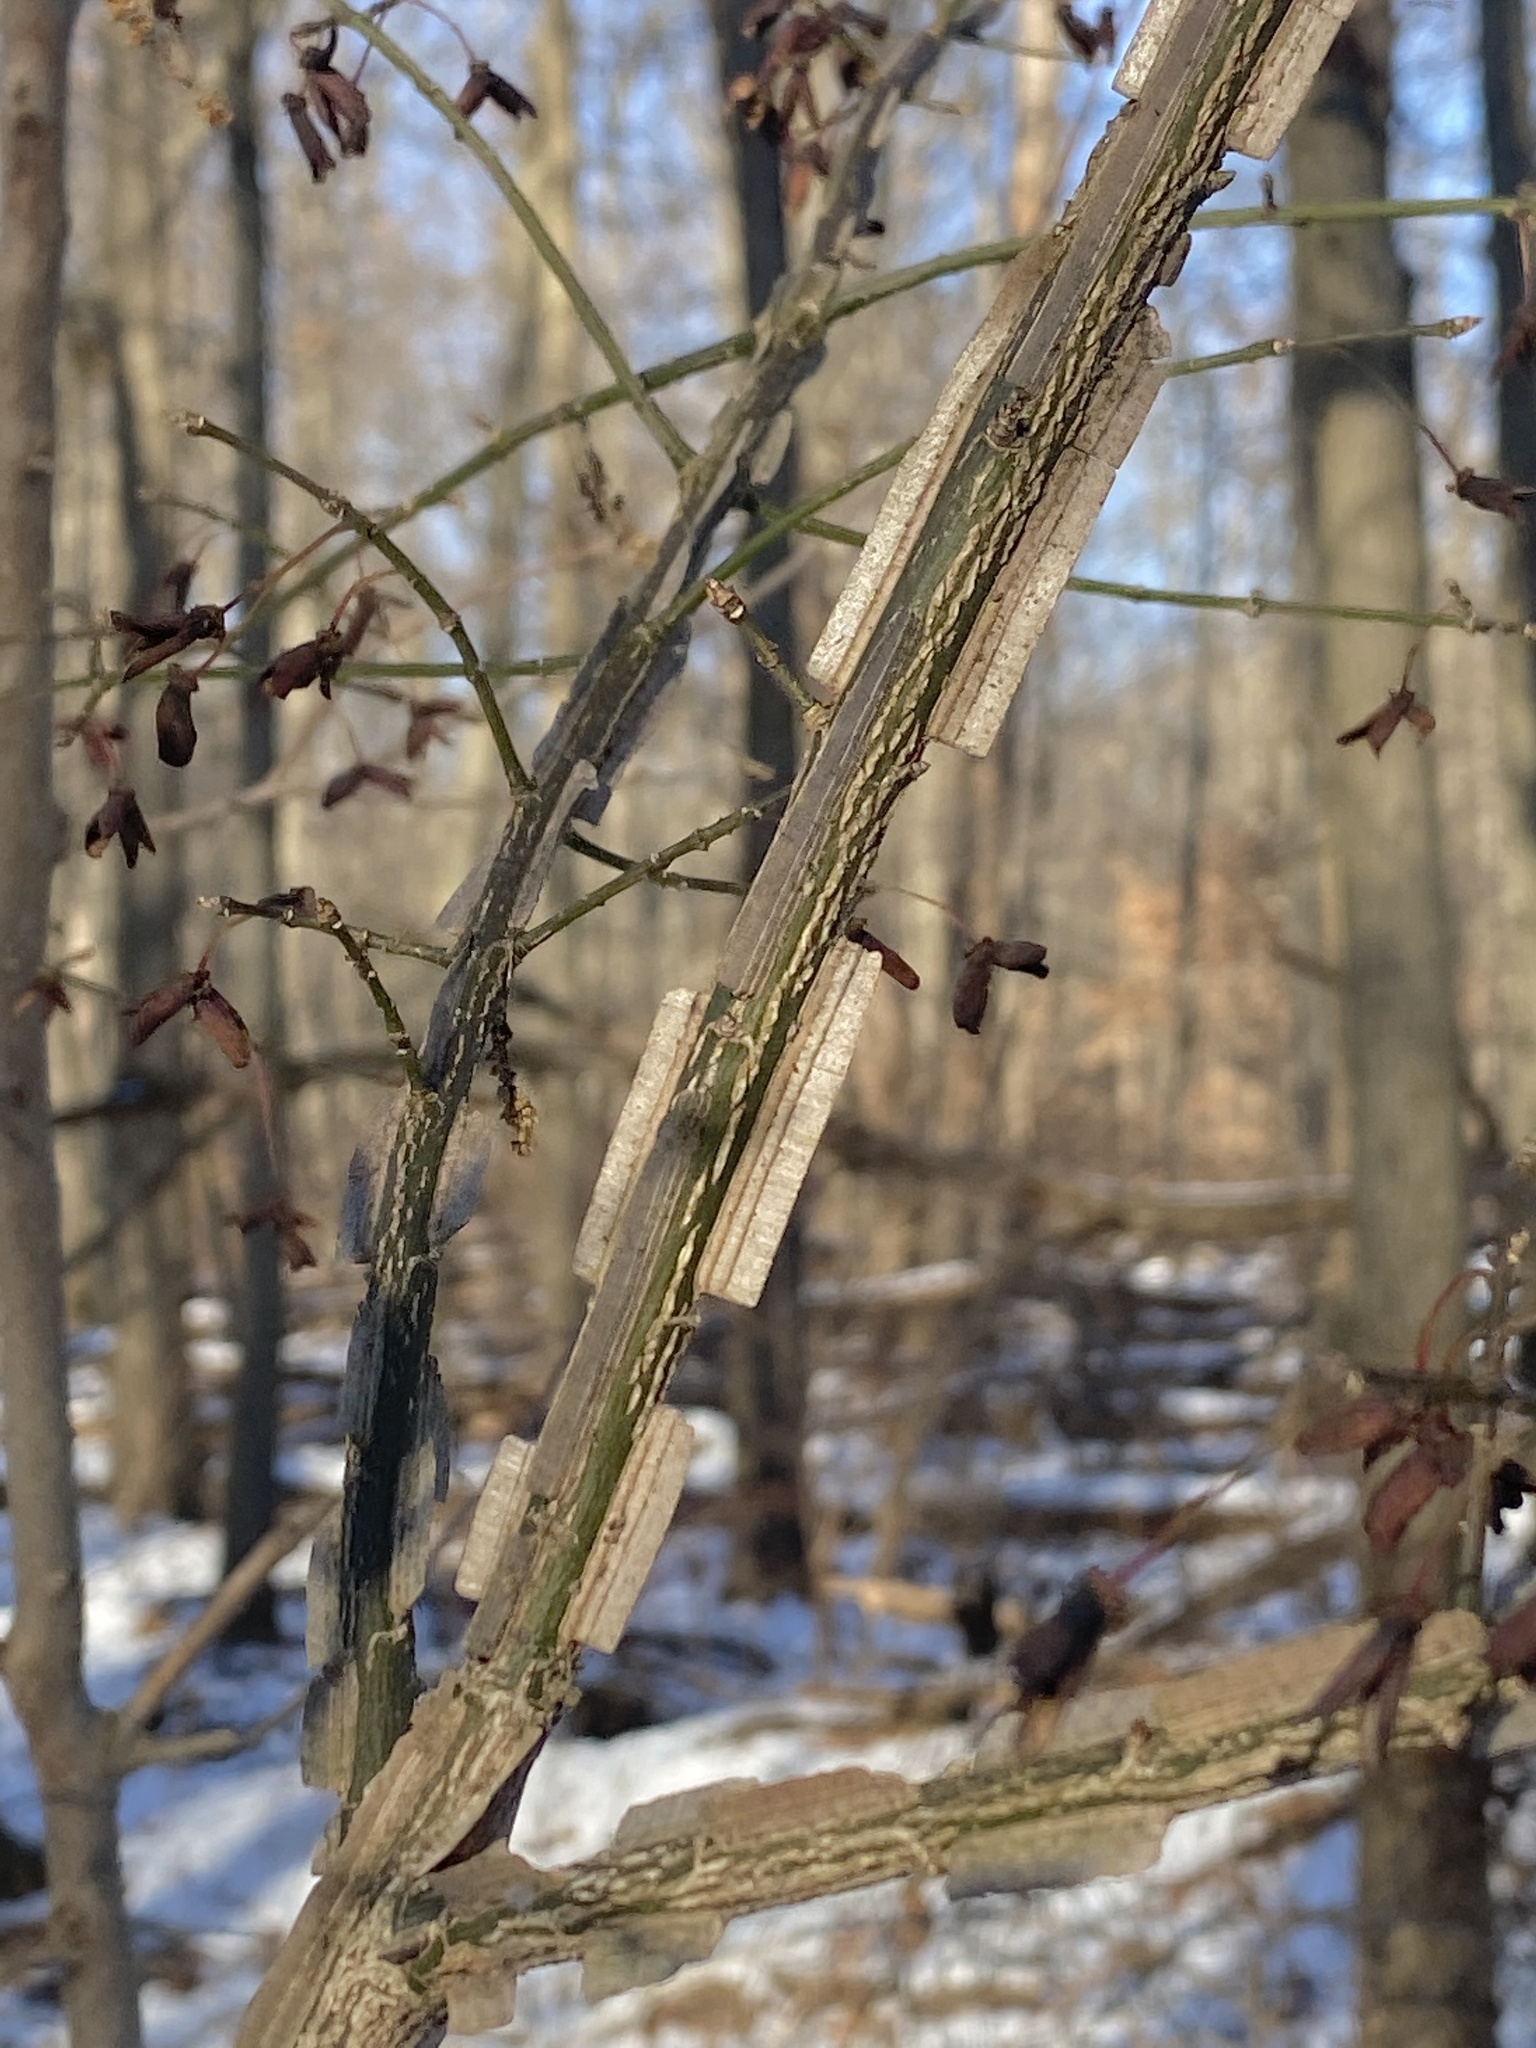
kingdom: Plantae
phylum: Tracheophyta
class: Magnoliopsida
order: Celastrales
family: Celastraceae
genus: Euonymus
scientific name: Euonymus alatus
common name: Winged euonymus
